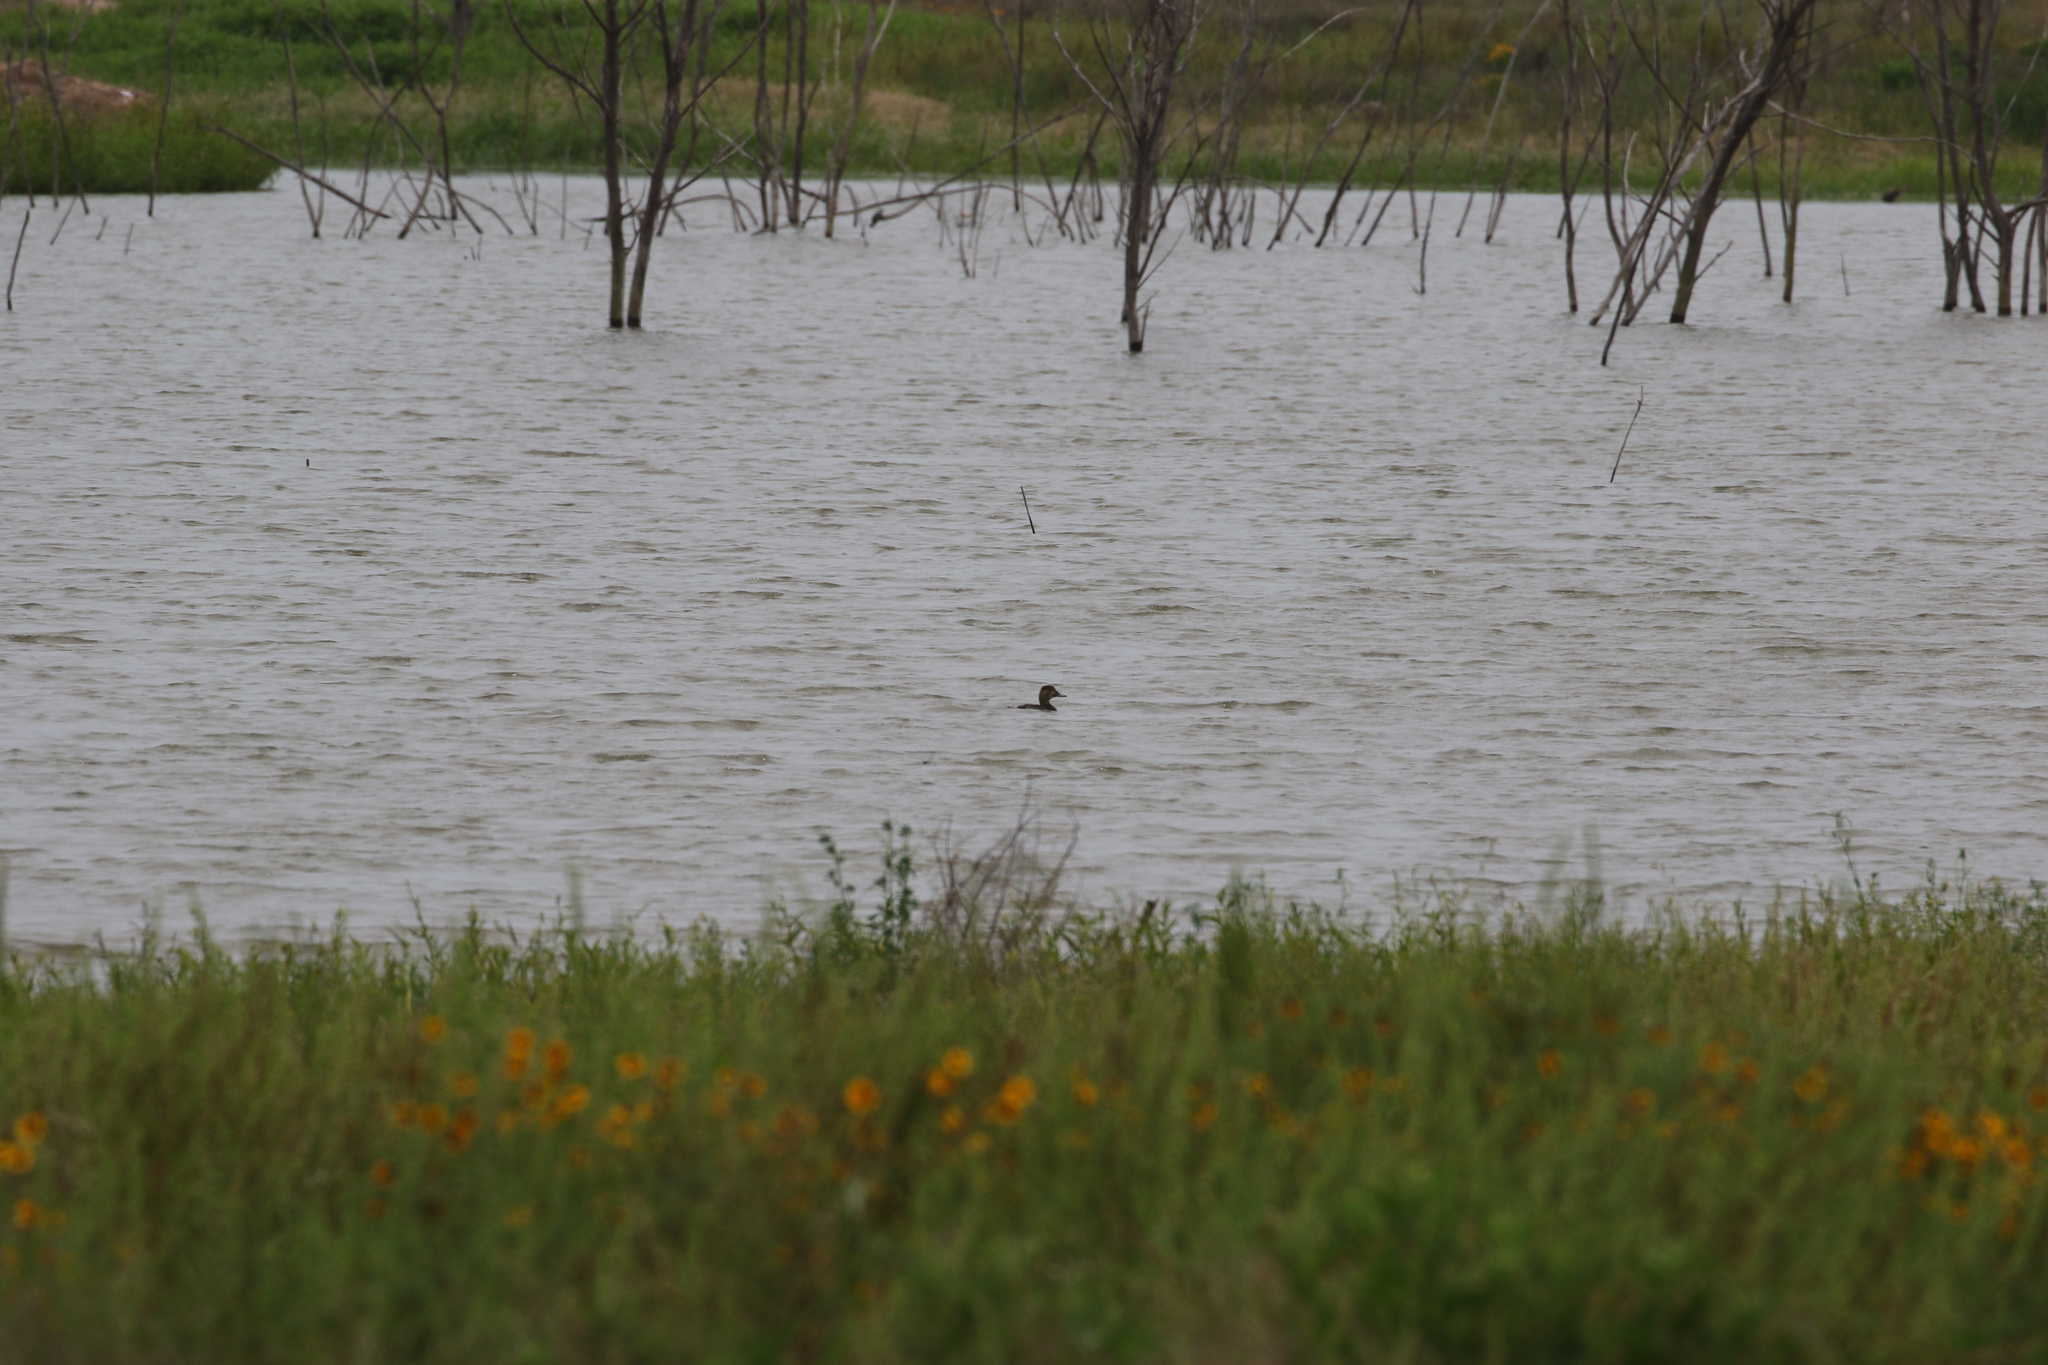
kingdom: Animalia
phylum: Chordata
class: Aves
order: Anseriformes
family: Anatidae
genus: Aythya
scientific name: Aythya americana
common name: Redhead
